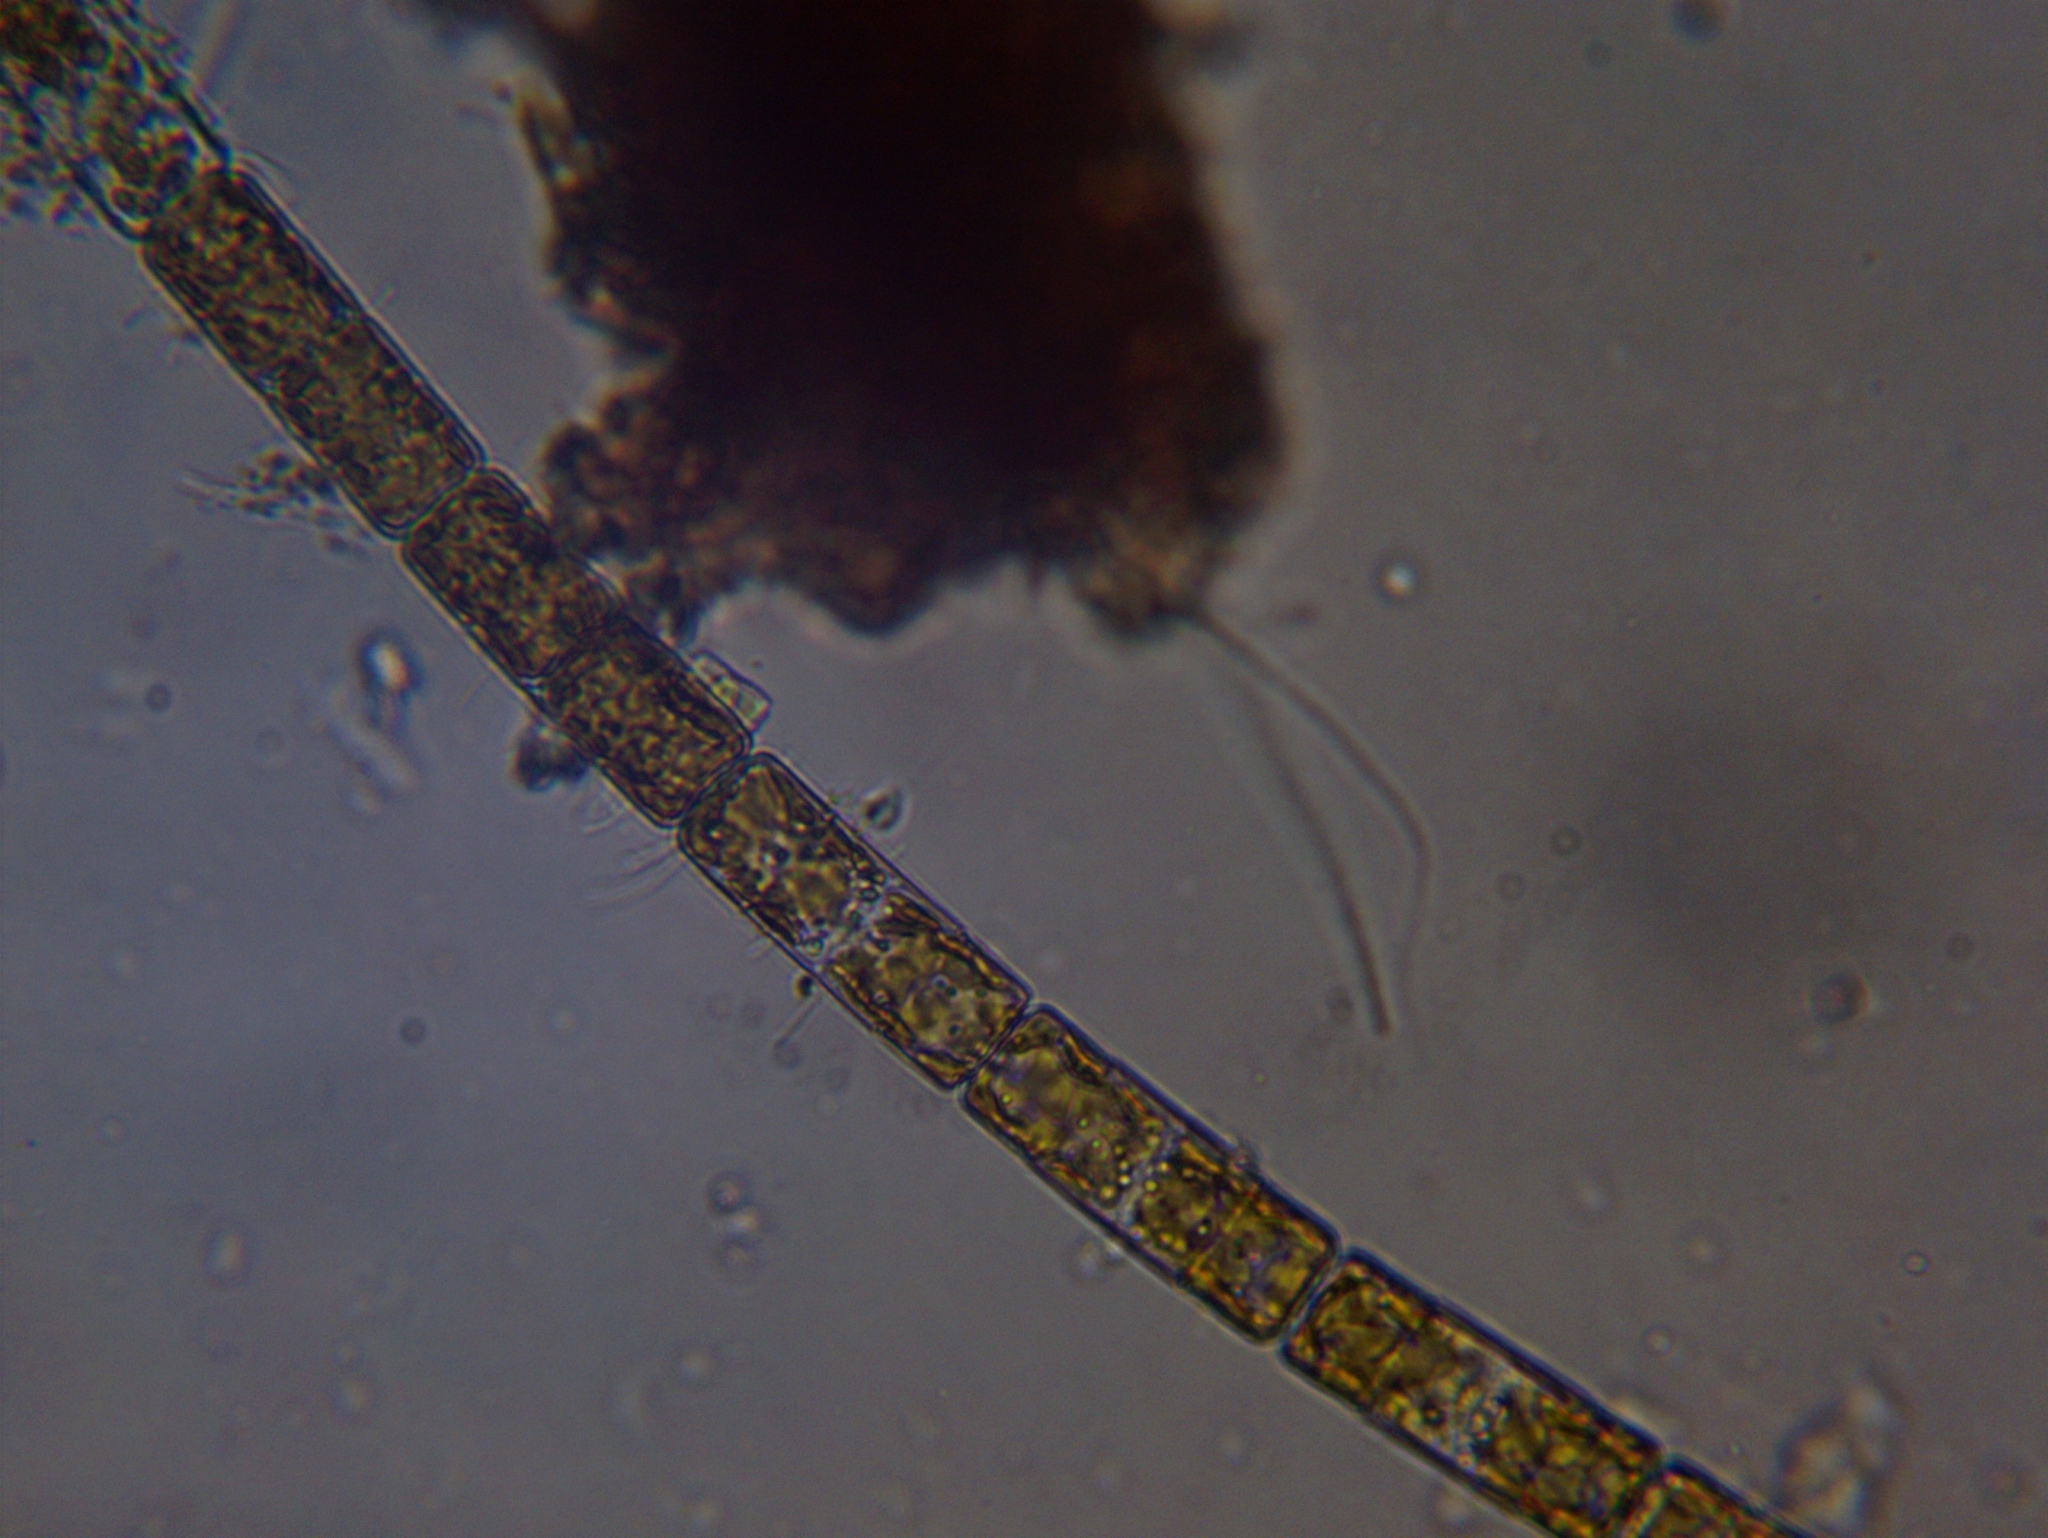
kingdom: Chromista
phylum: Ochrophyta
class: Bacillariophyceae
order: Melosirales
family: Melosiraceae
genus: Melosira
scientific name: Melosira varians
